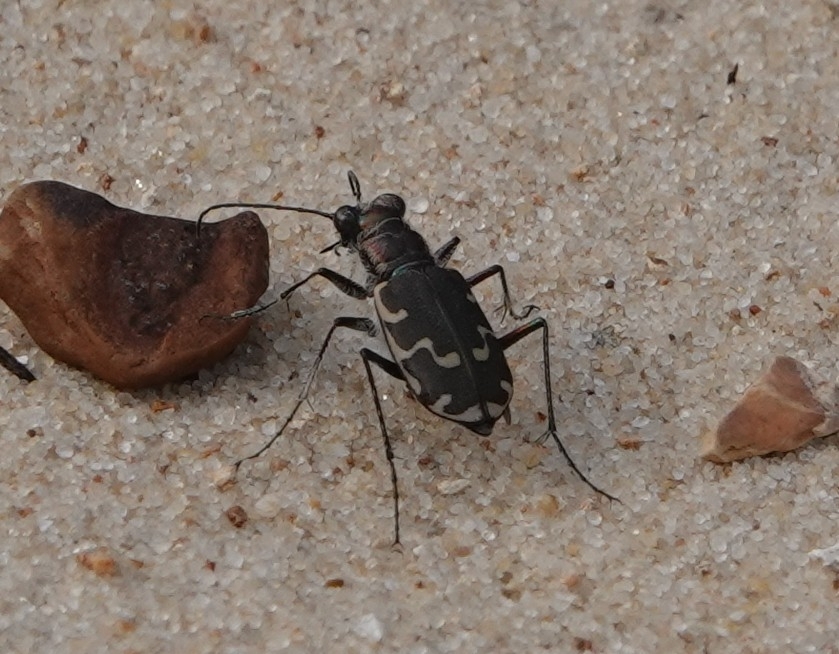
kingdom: Animalia
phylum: Arthropoda
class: Insecta
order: Coleoptera
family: Carabidae
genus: Cicindela
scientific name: Cicindela repanda
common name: Bronzed tiger beetle
